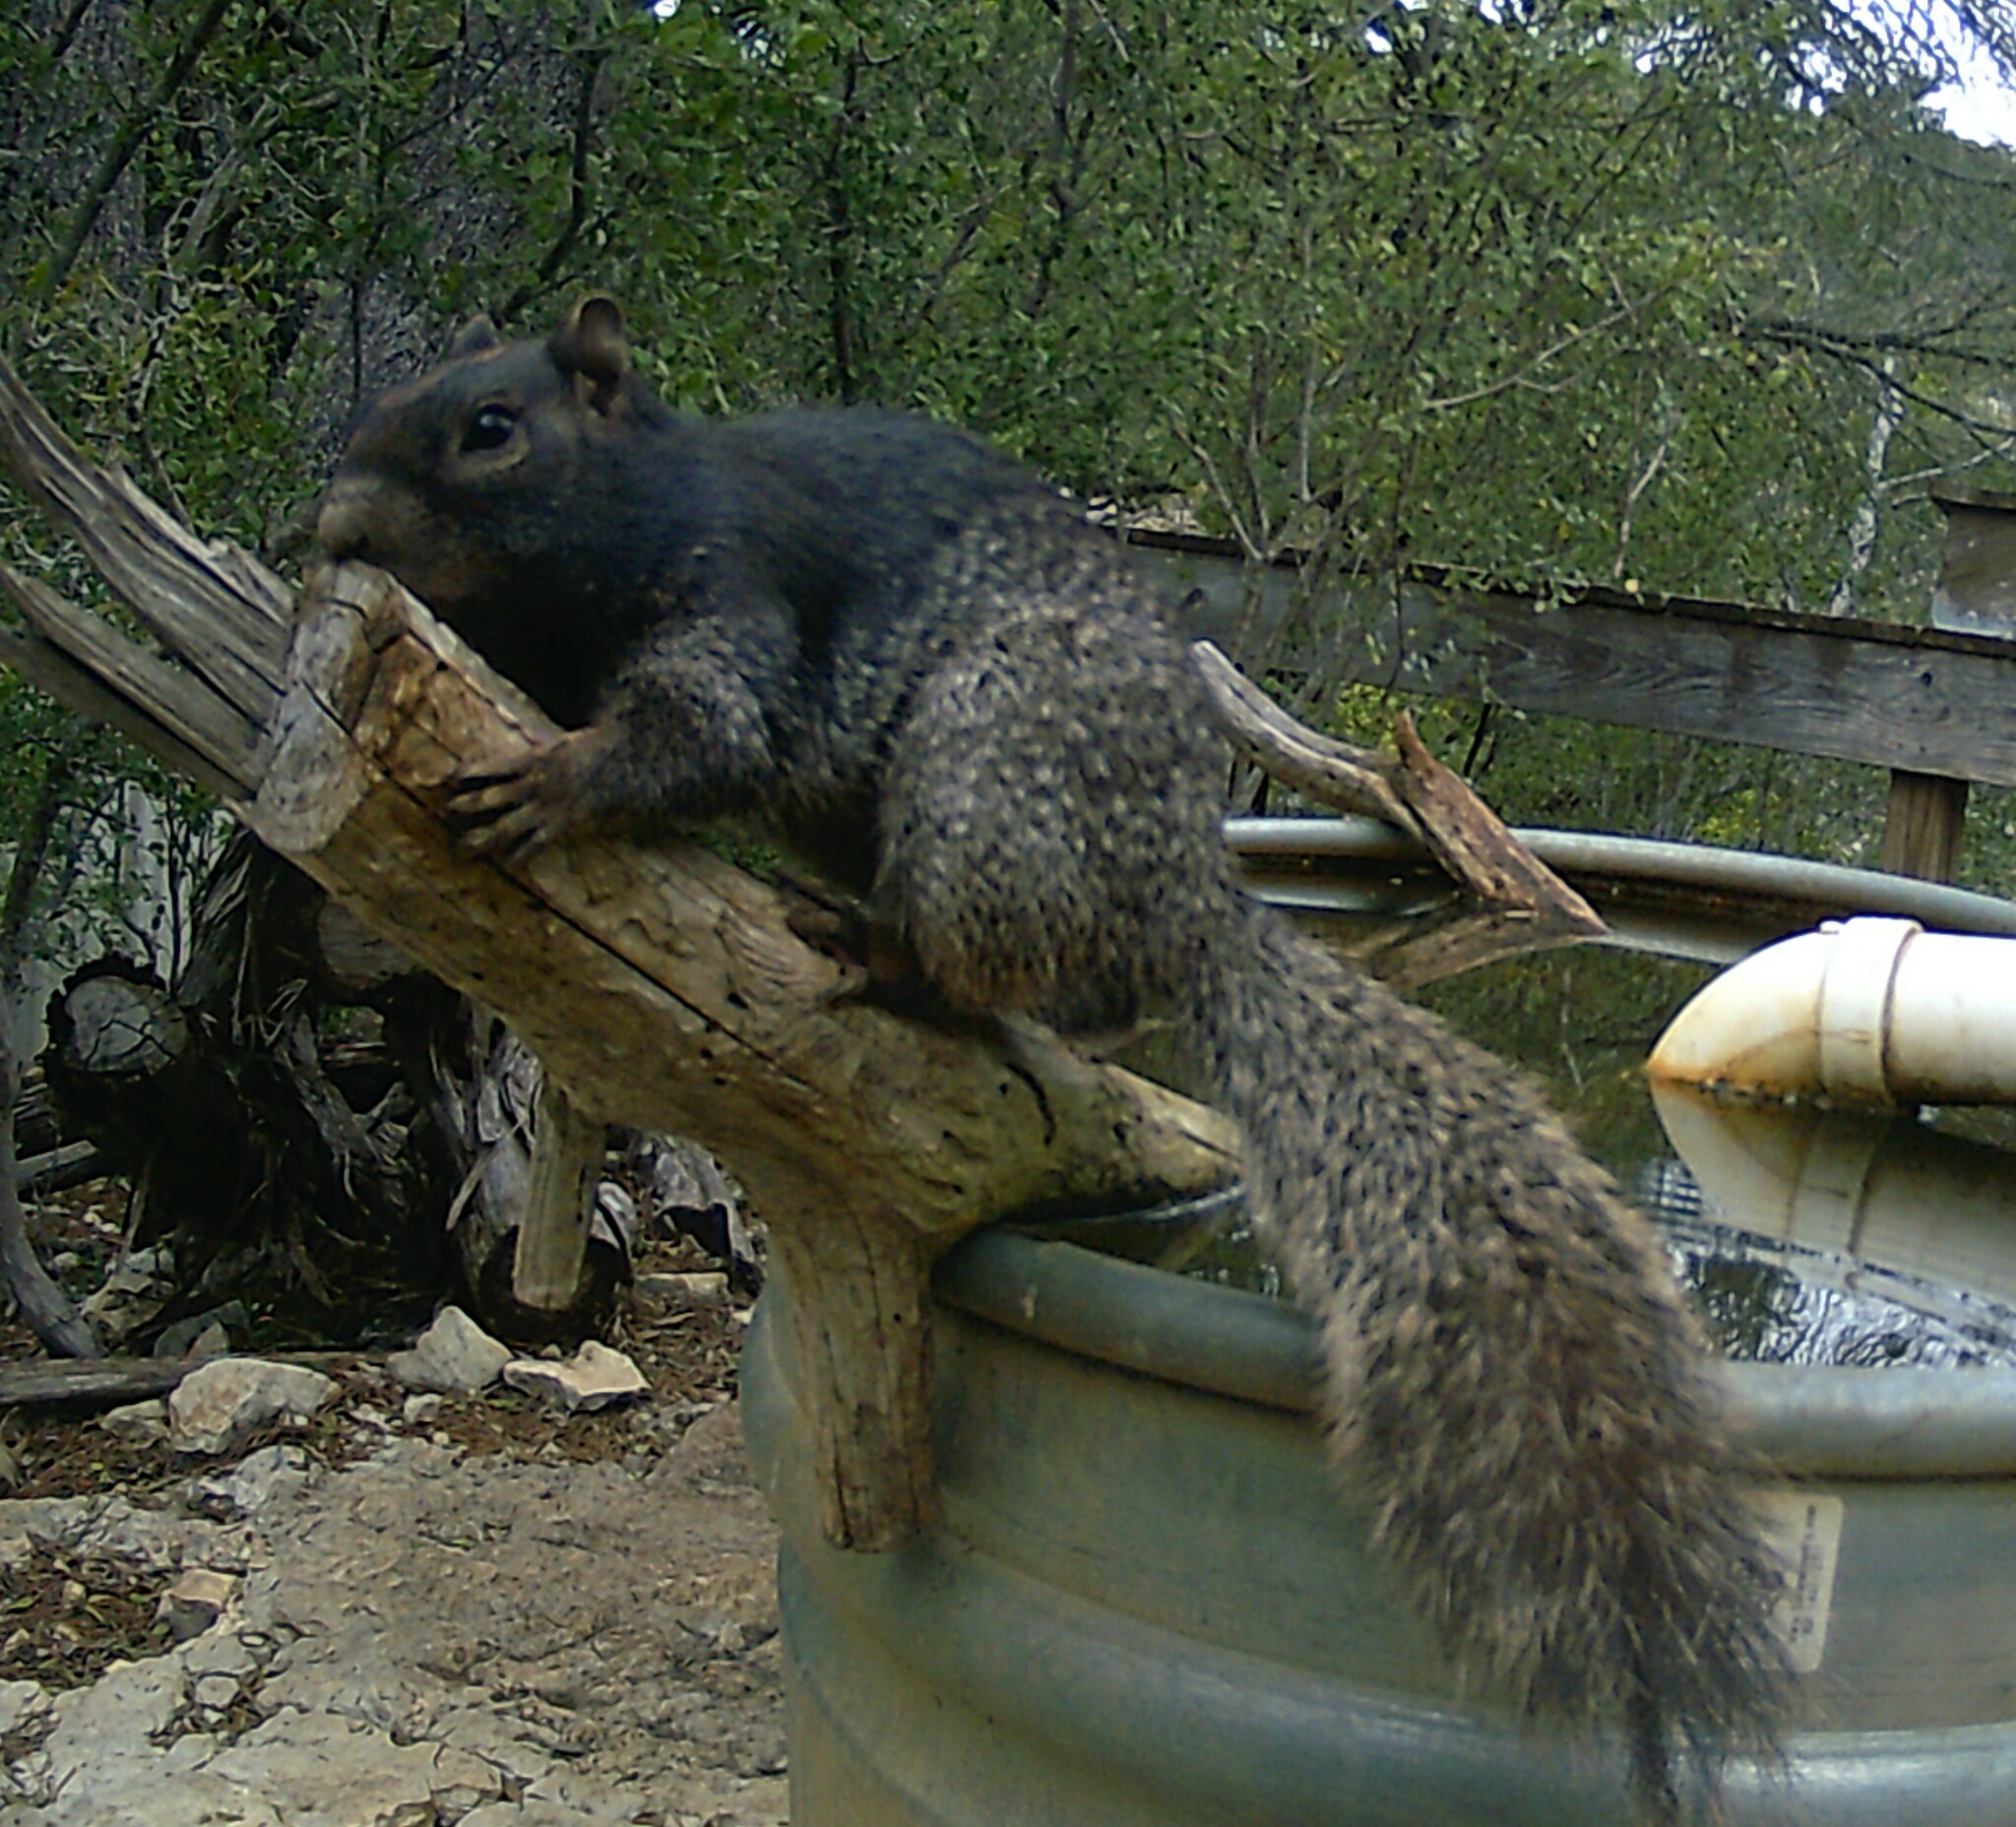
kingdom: Animalia
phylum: Chordata
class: Mammalia
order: Rodentia
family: Sciuridae
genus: Otospermophilus
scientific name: Otospermophilus variegatus
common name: Rock squirrel
